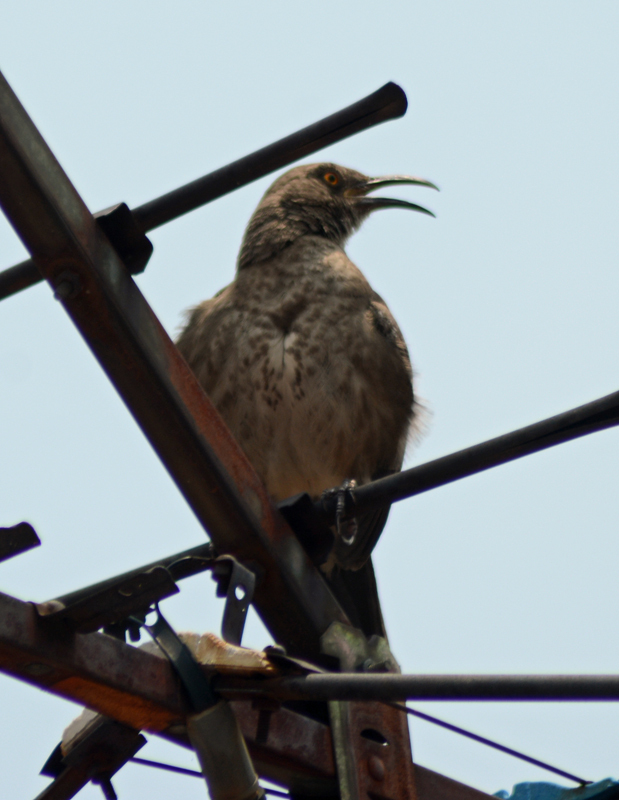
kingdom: Animalia
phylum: Chordata
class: Aves
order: Passeriformes
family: Mimidae
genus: Toxostoma
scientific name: Toxostoma curvirostre
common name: Curve-billed thrasher
